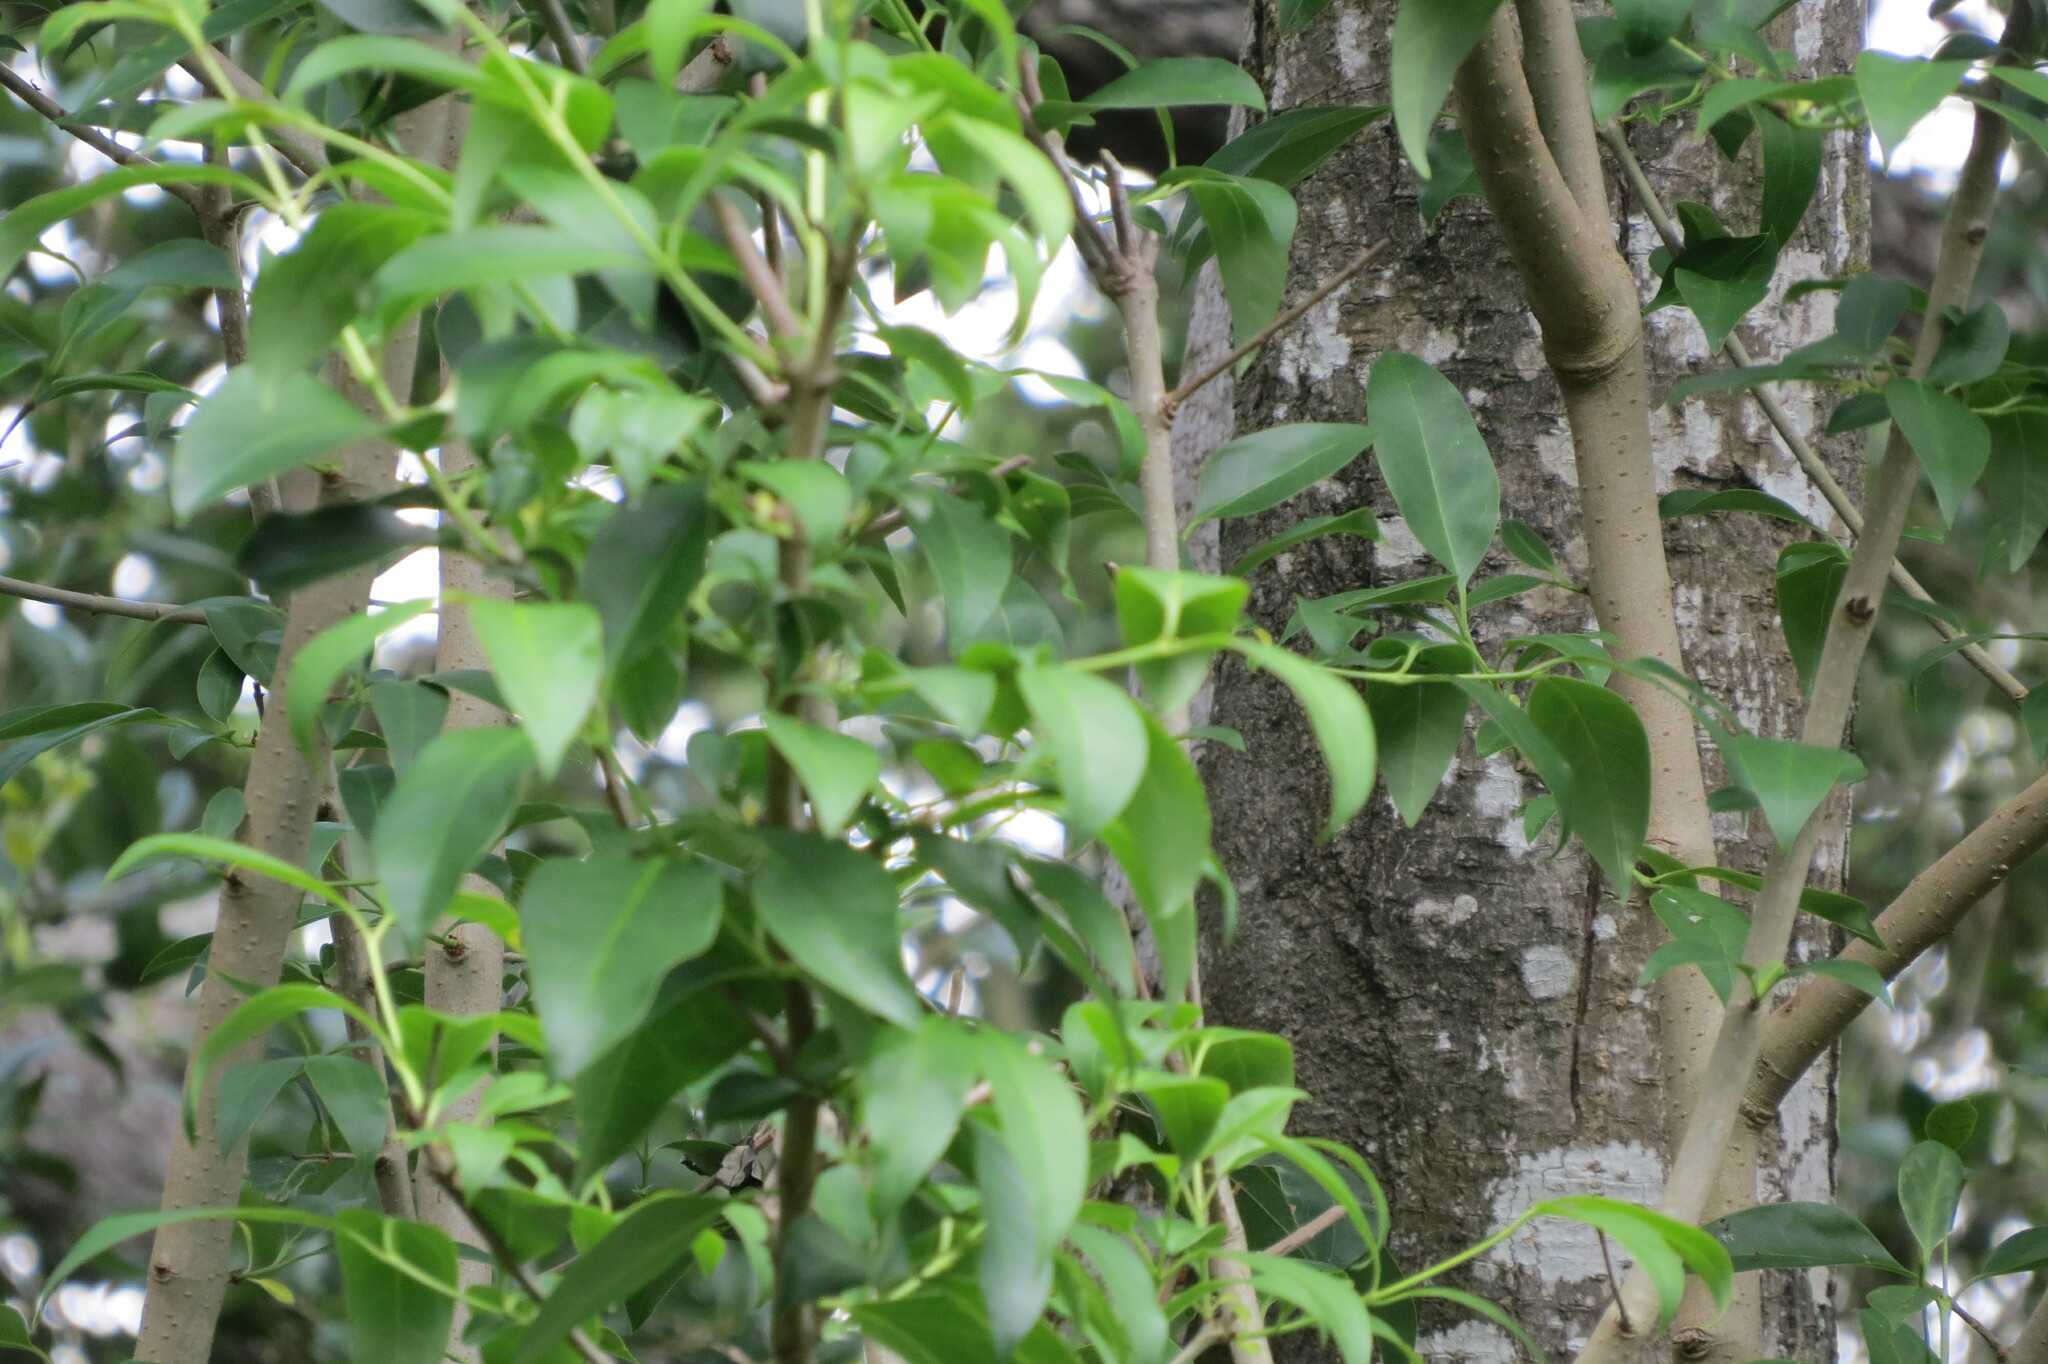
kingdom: Plantae
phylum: Tracheophyta
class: Magnoliopsida
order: Lamiales
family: Oleaceae
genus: Ligustrum
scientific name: Ligustrum lucidum
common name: Glossy privet
